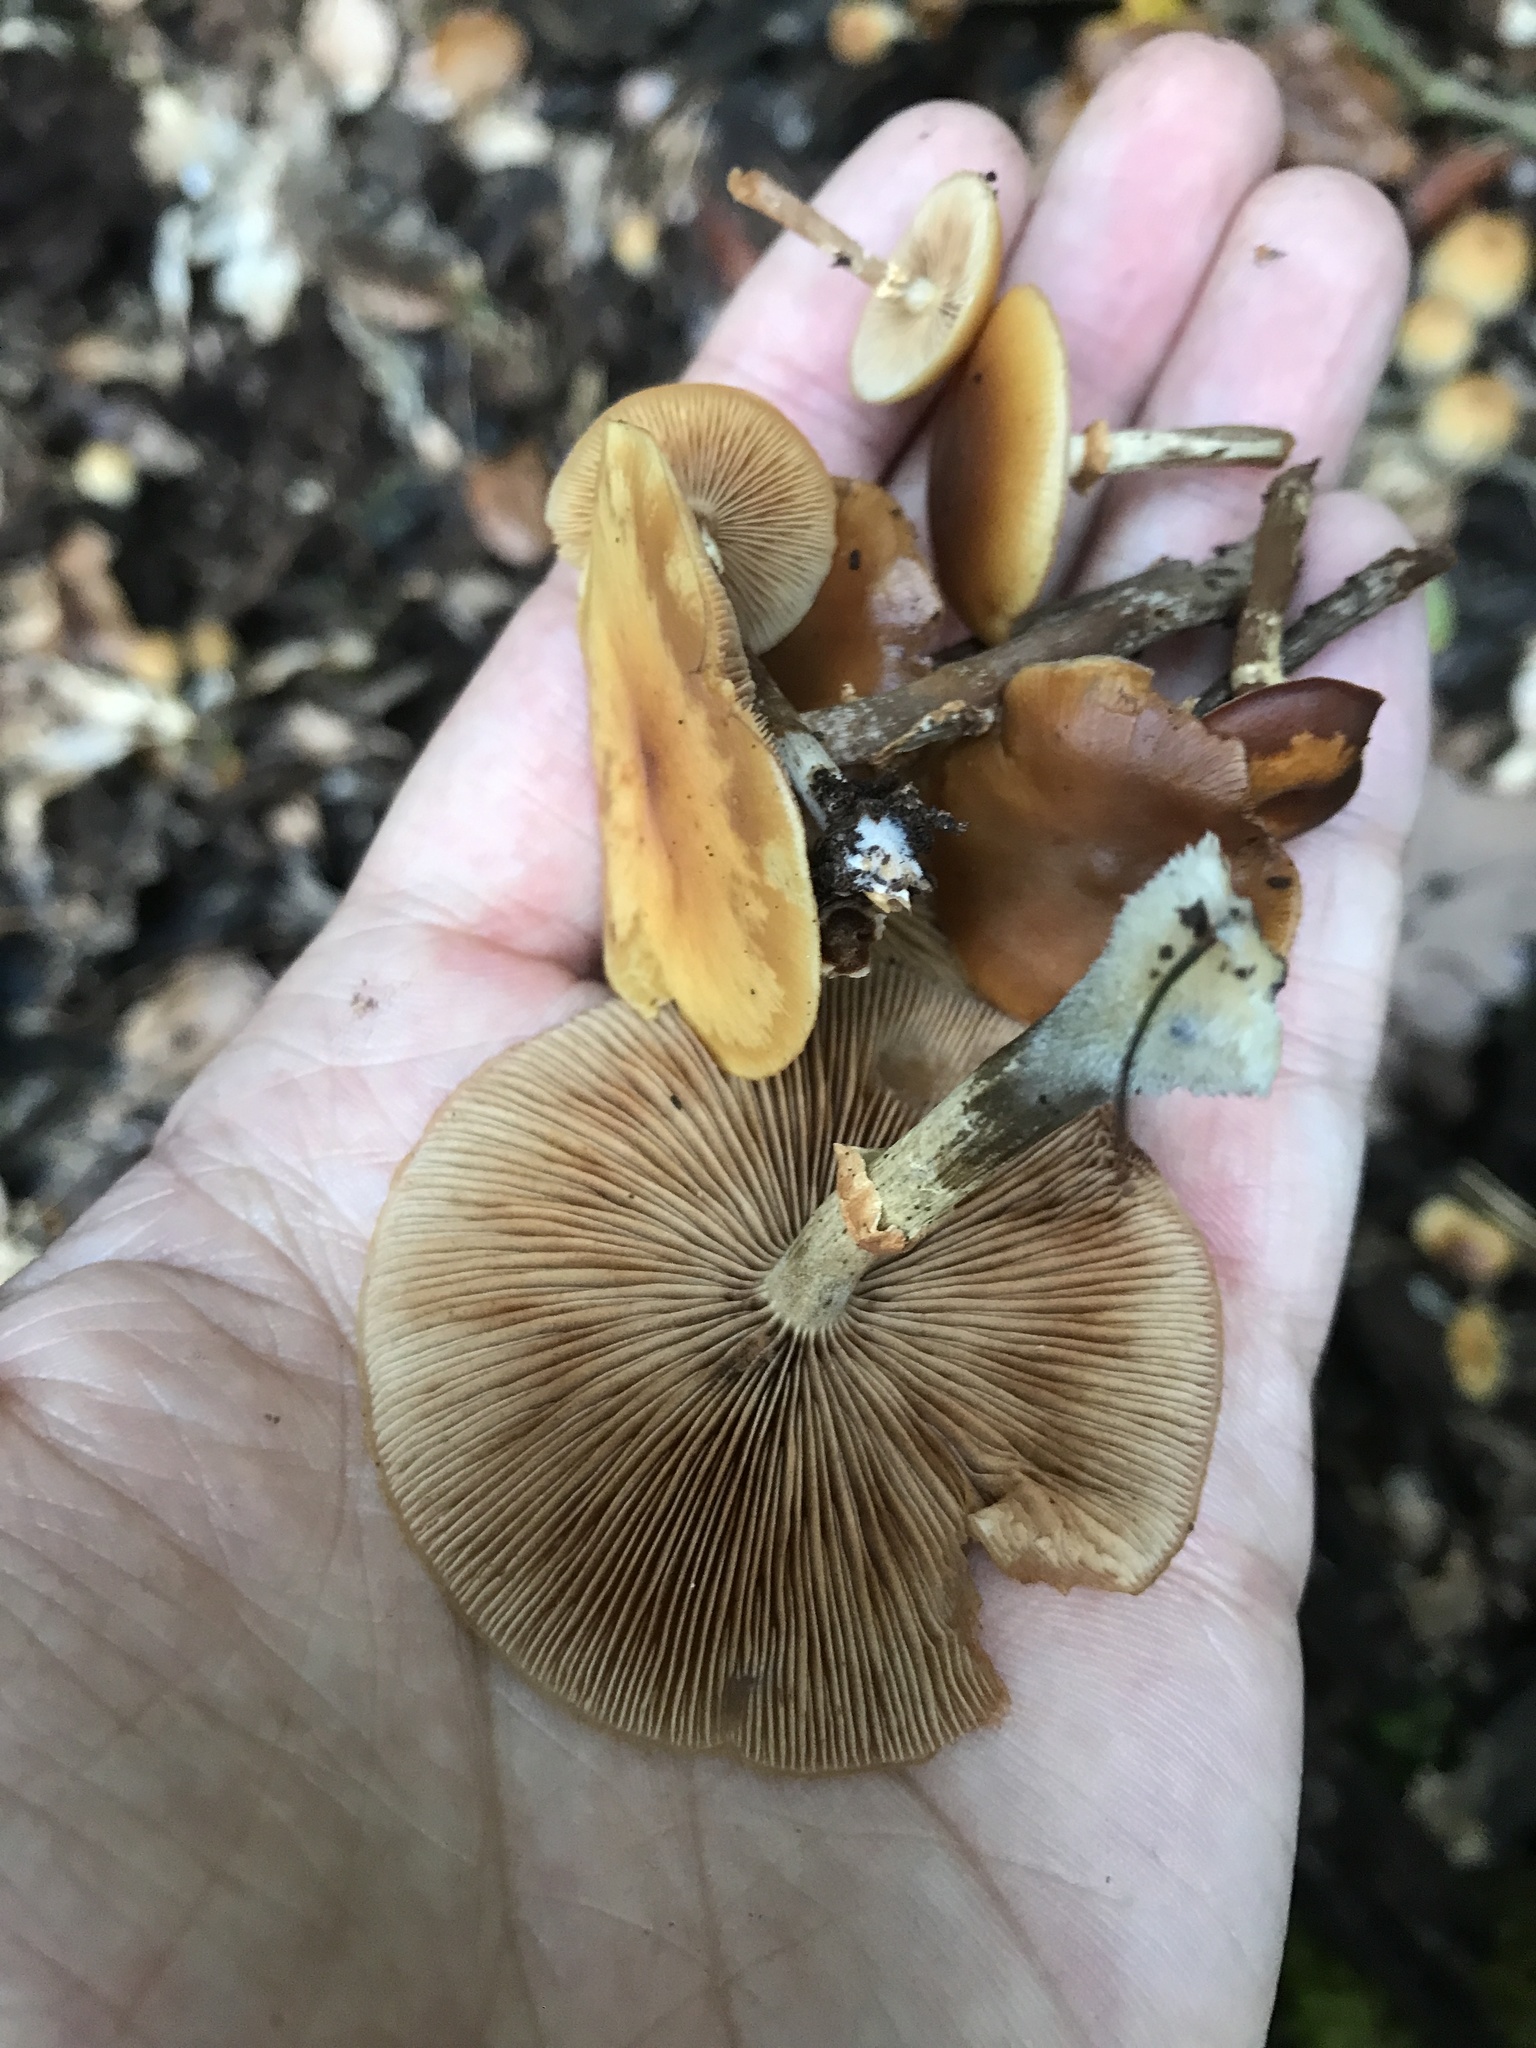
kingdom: Fungi
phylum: Basidiomycota
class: Agaricomycetes
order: Agaricales
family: Hymenogastraceae
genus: Galerina
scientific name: Galerina marginata
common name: Funeral bell
